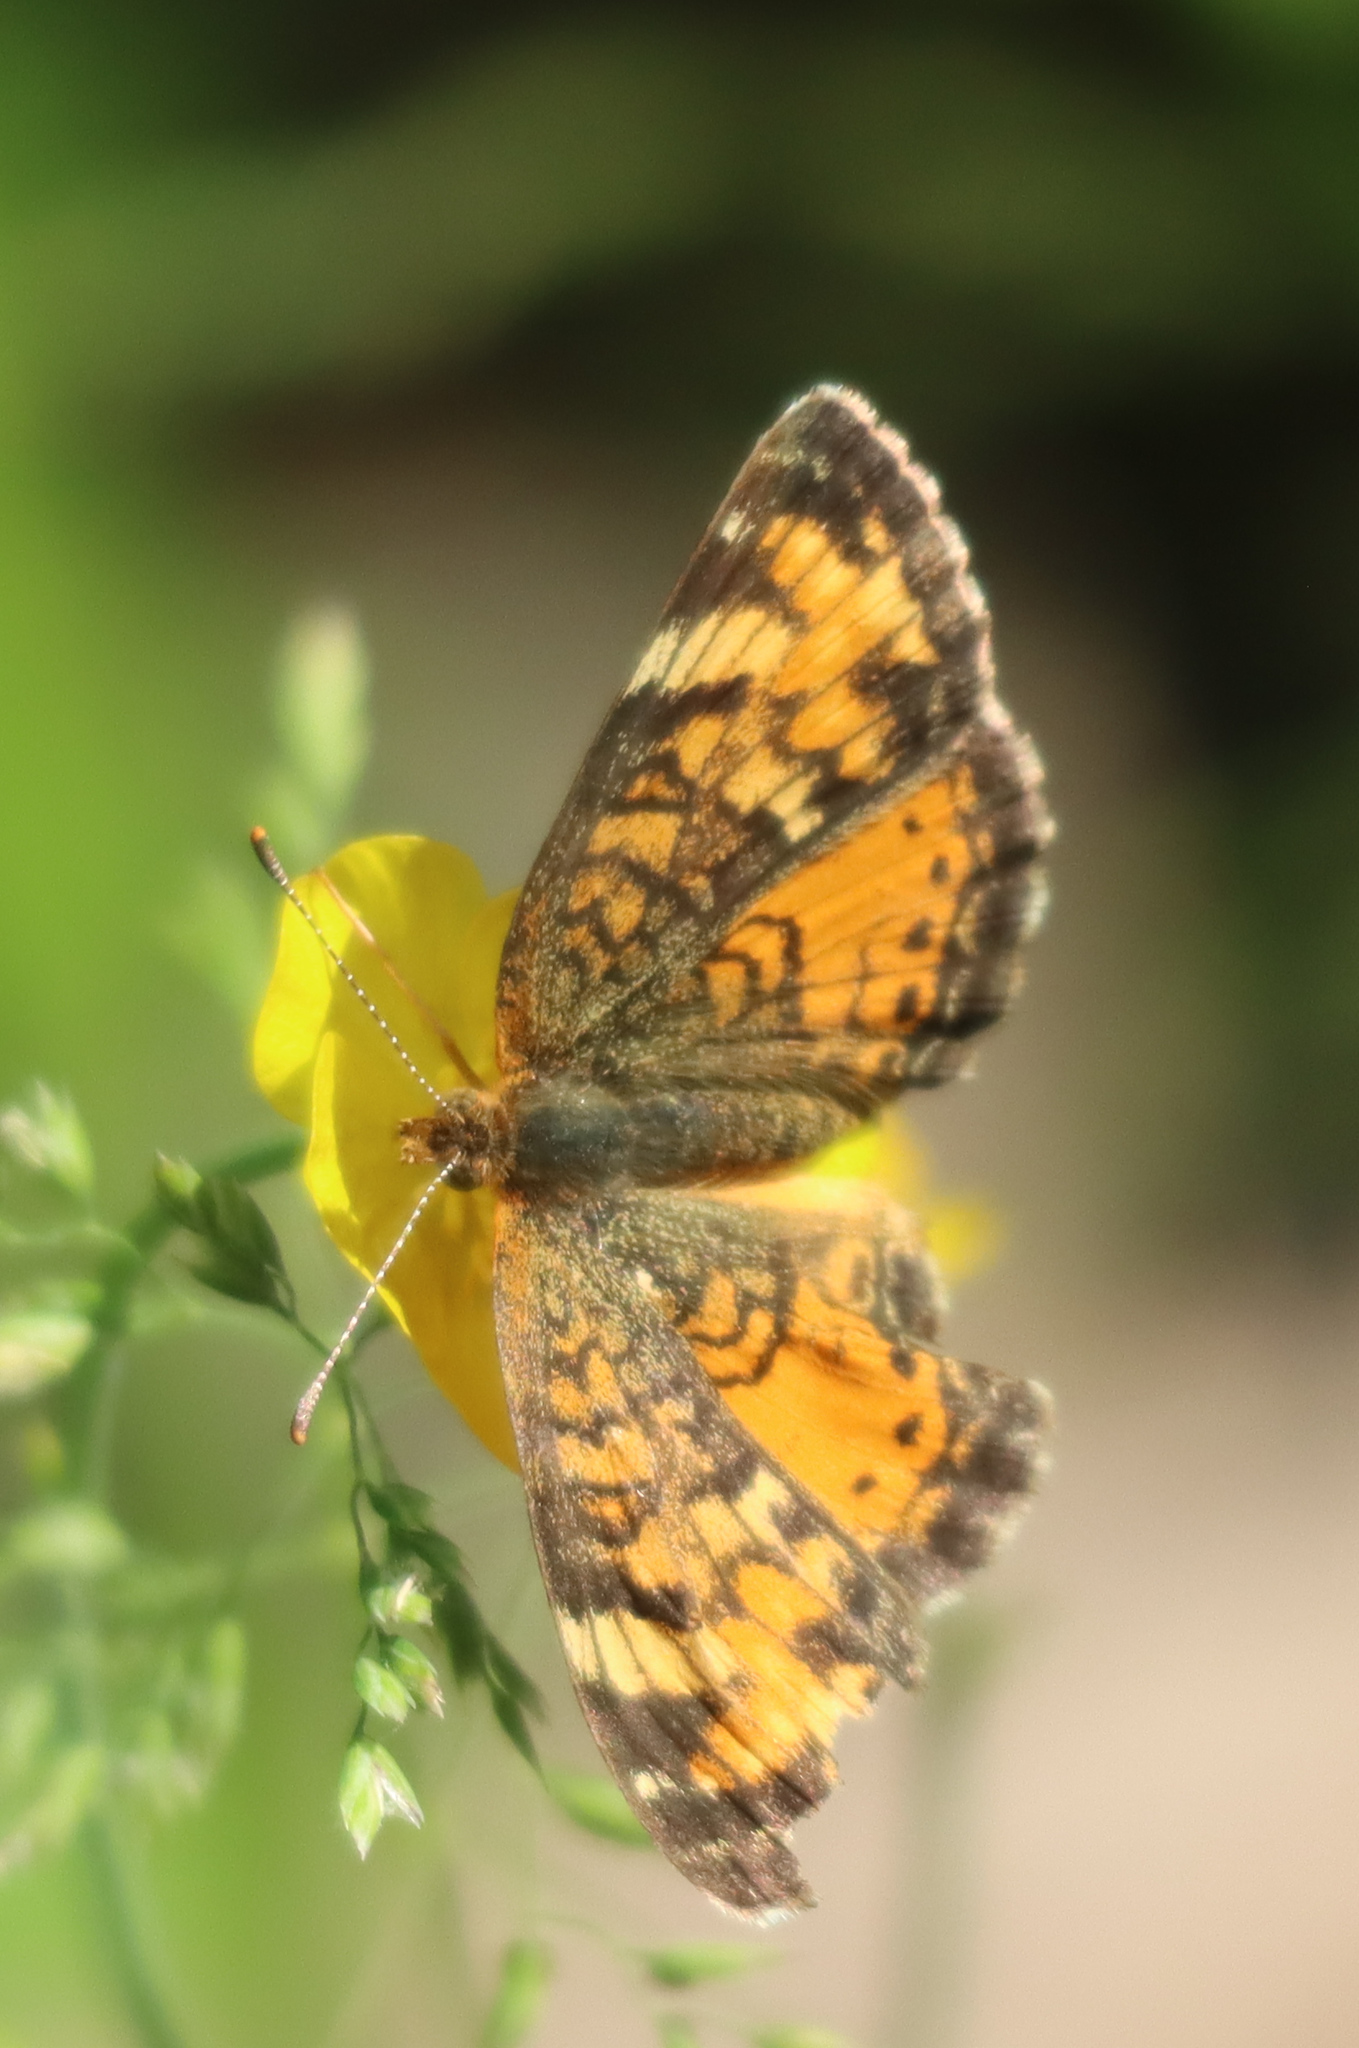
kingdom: Animalia
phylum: Arthropoda
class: Insecta
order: Lepidoptera
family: Nymphalidae
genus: Phyciodes
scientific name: Phyciodes tharos
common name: Pearl crescent
